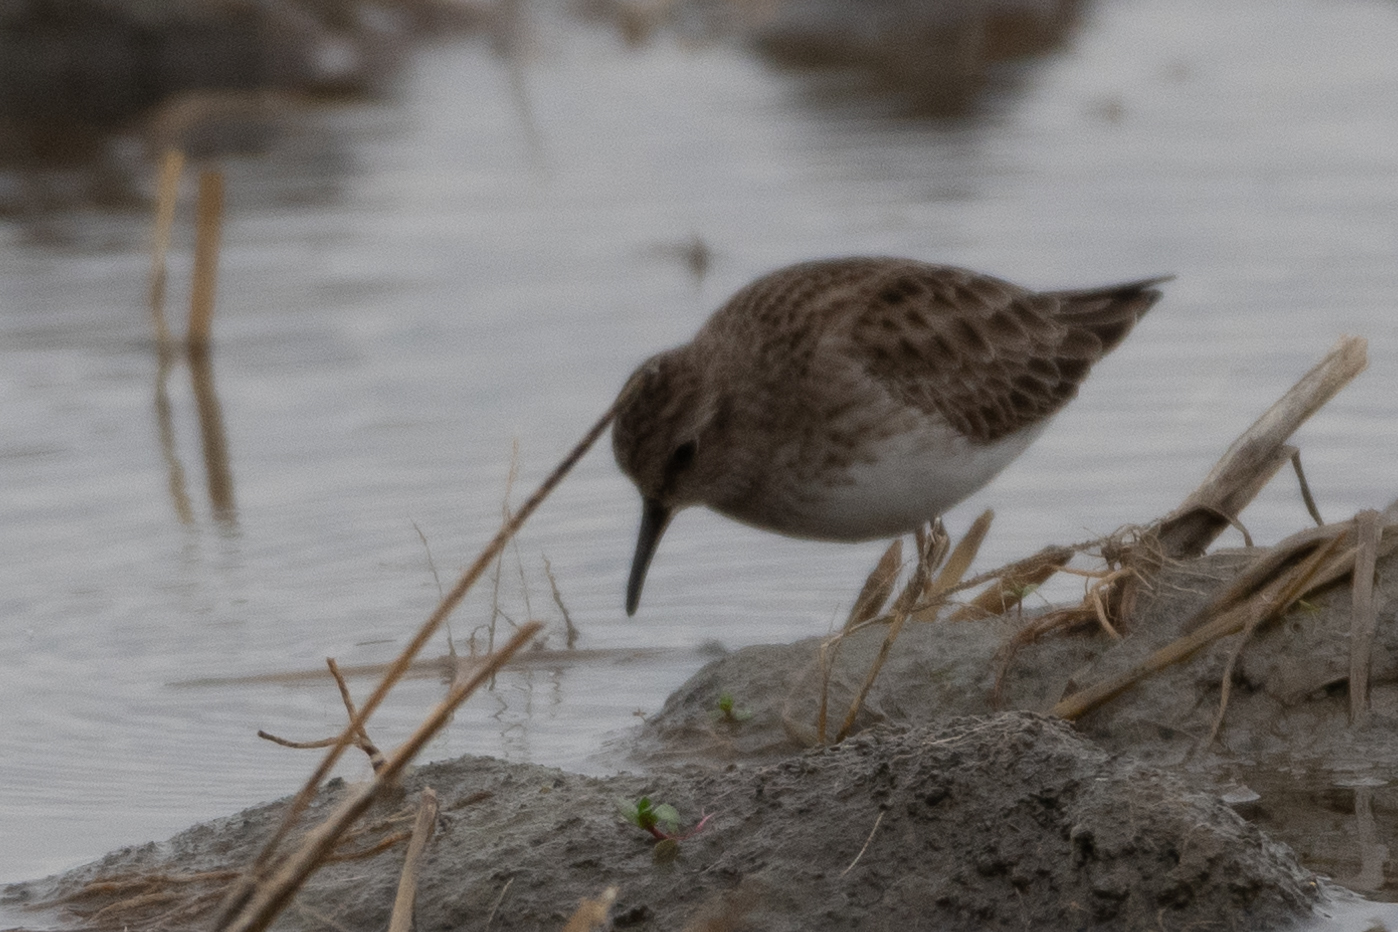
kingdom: Animalia
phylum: Chordata
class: Aves
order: Charadriiformes
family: Scolopacidae
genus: Calidris
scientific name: Calidris minutilla
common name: Least sandpiper
